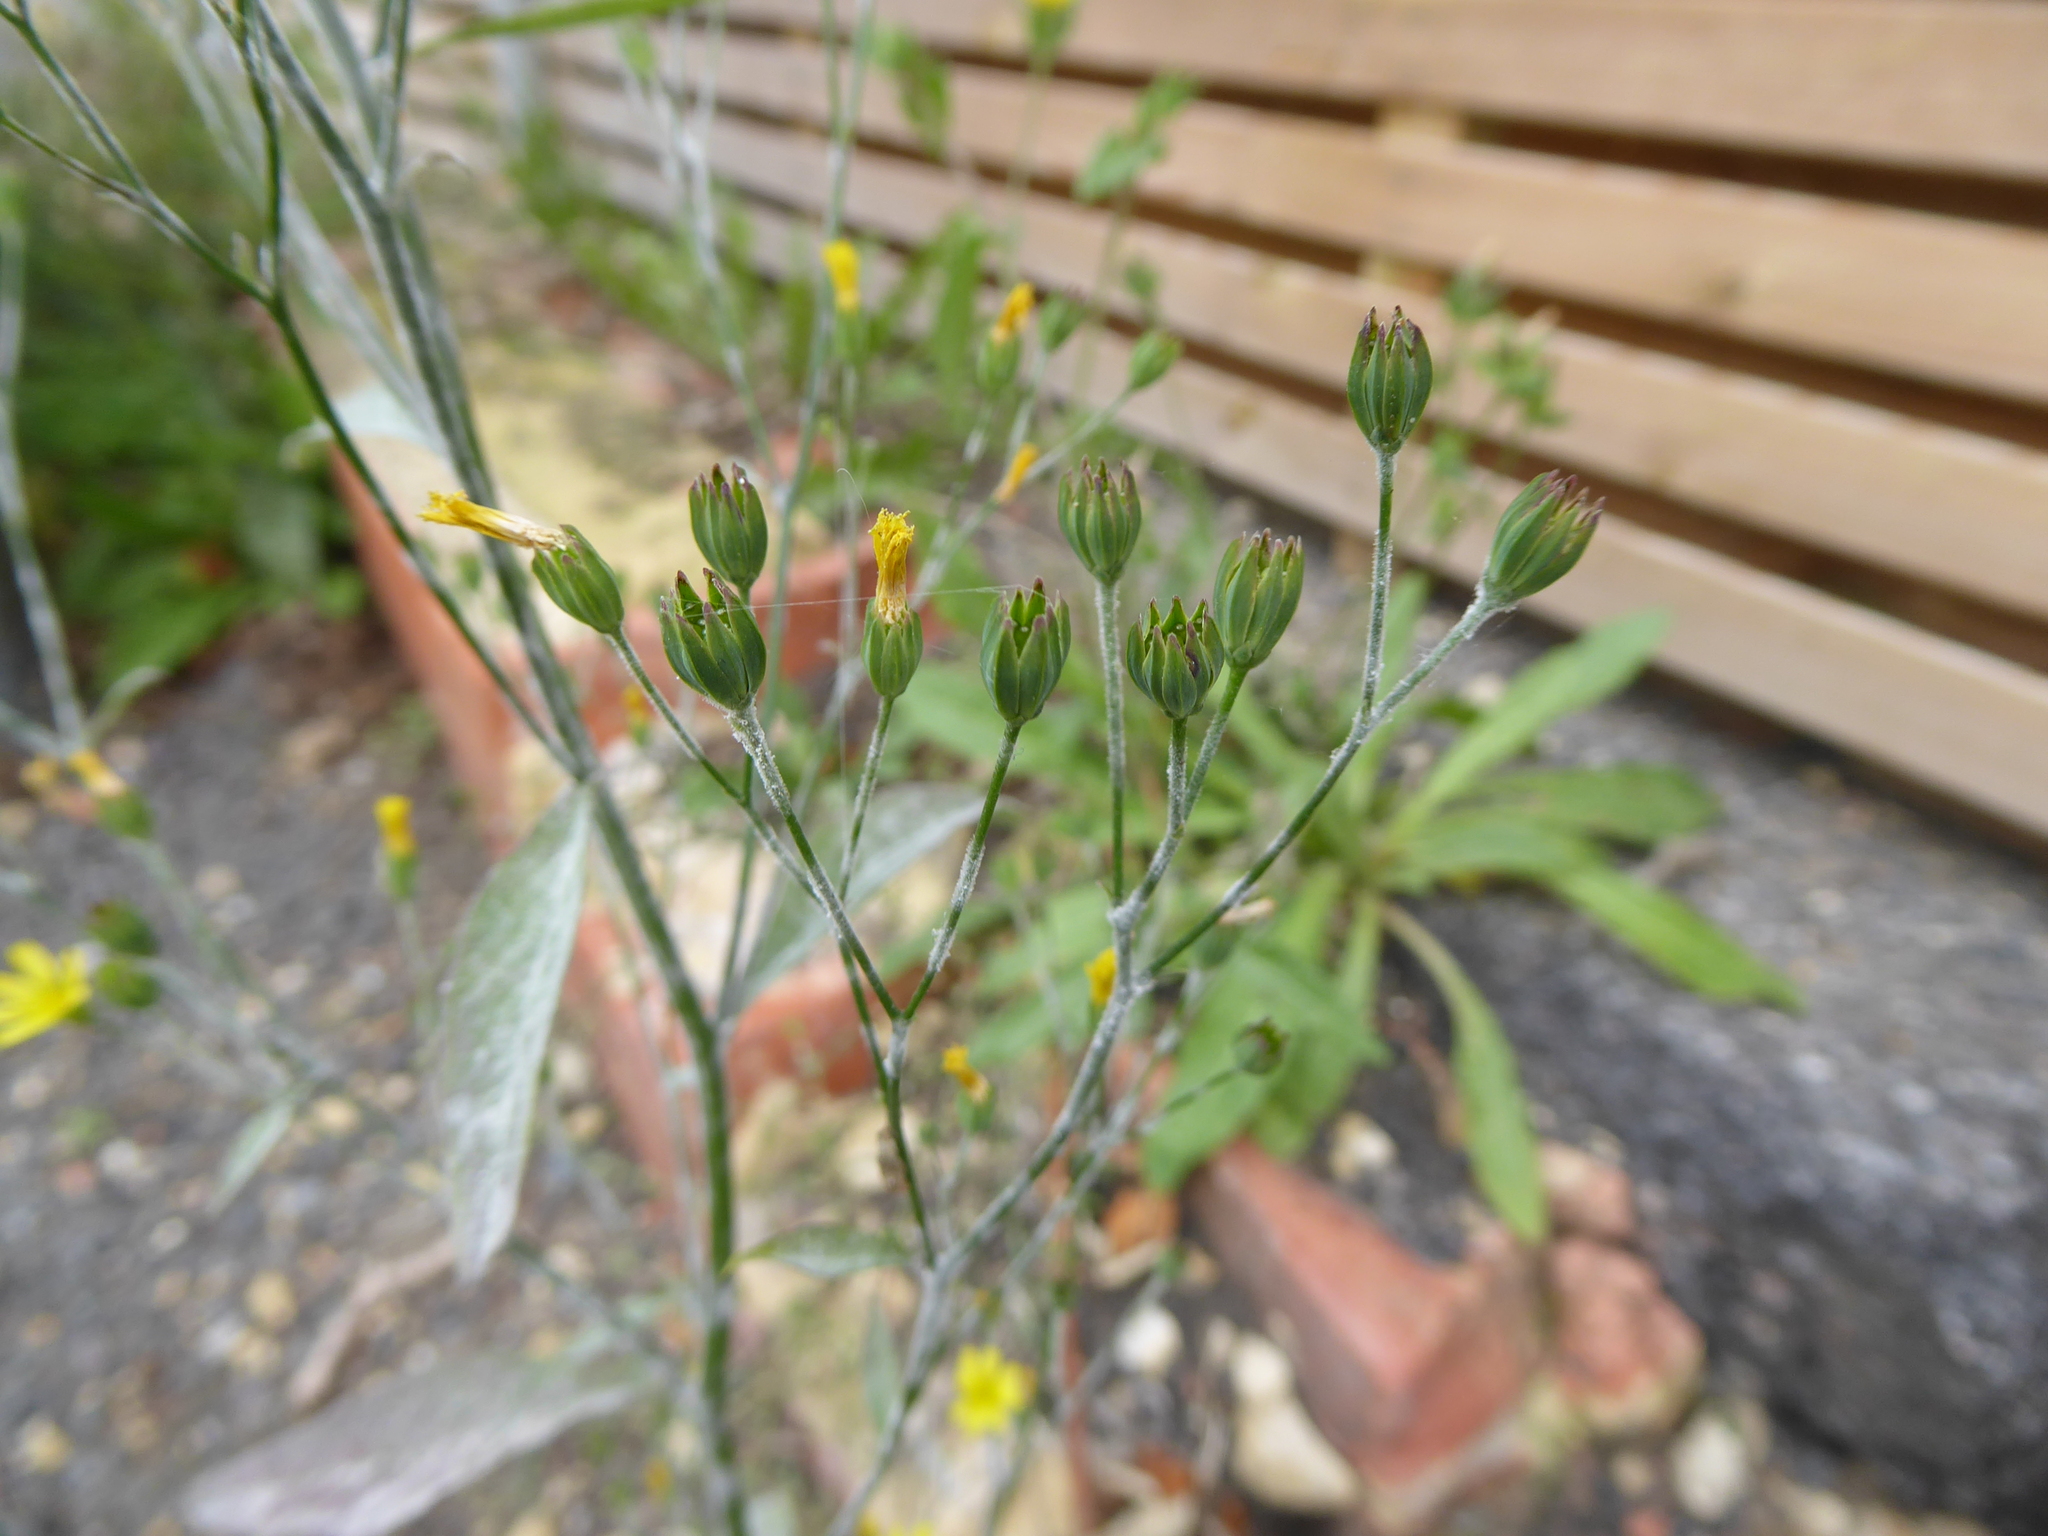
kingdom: Plantae
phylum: Tracheophyta
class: Magnoliopsida
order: Asterales
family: Asteraceae
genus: Lapsana
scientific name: Lapsana communis
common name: Nipplewort
